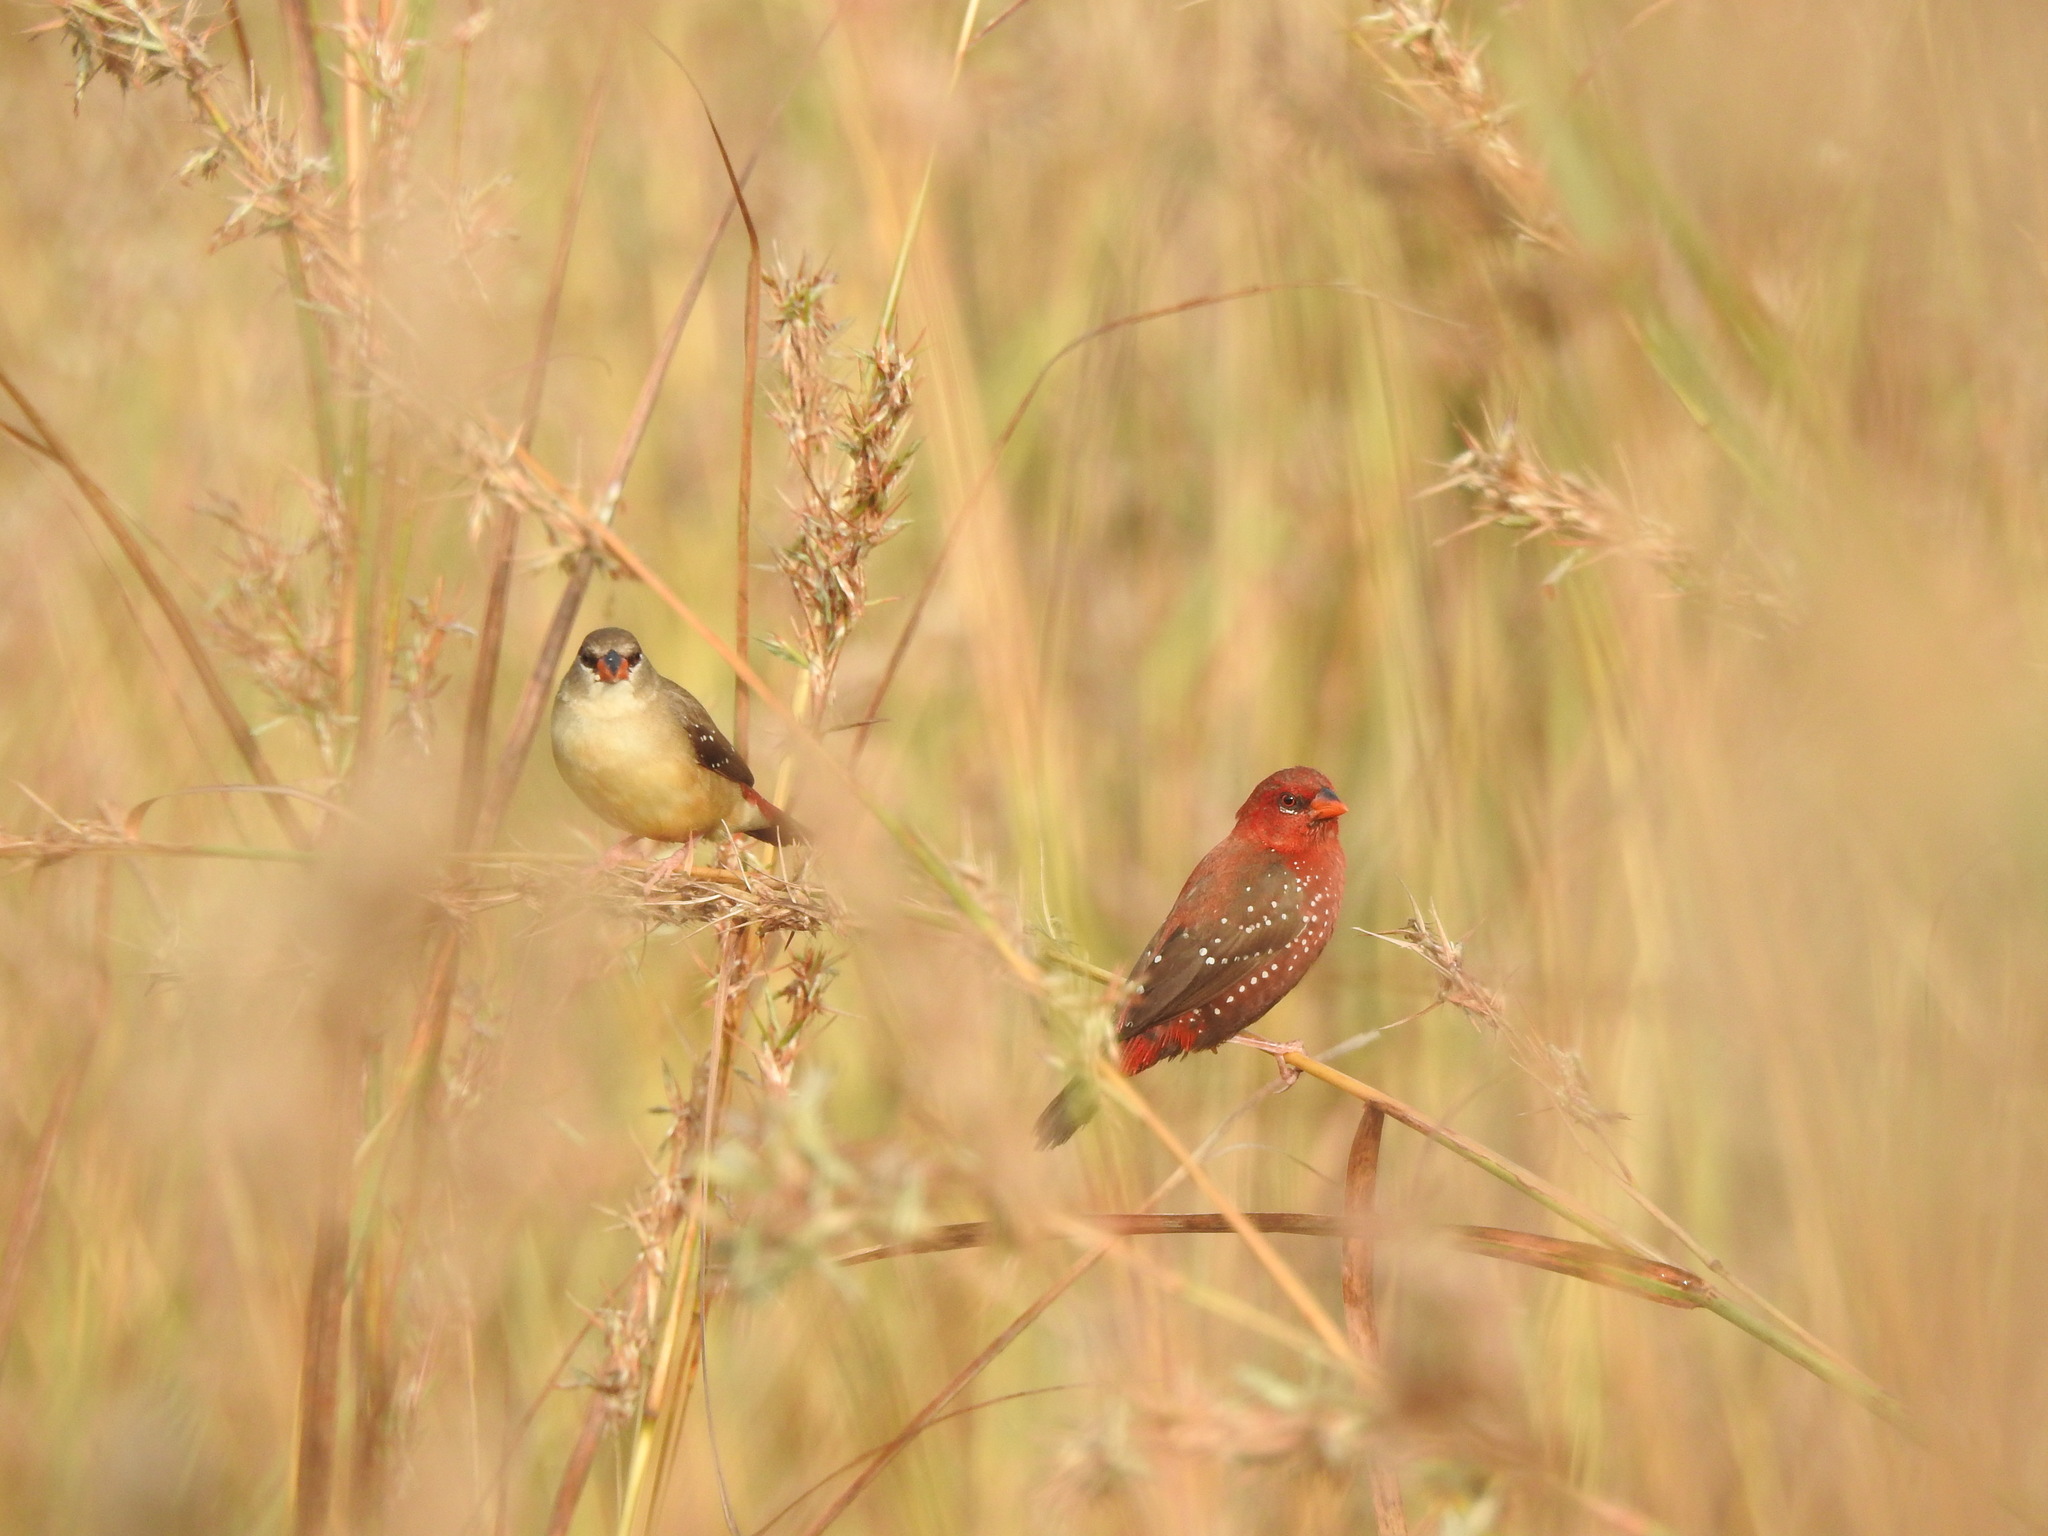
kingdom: Animalia
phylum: Chordata
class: Aves
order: Passeriformes
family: Estrildidae
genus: Amandava
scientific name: Amandava amandava
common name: Red avadavat
